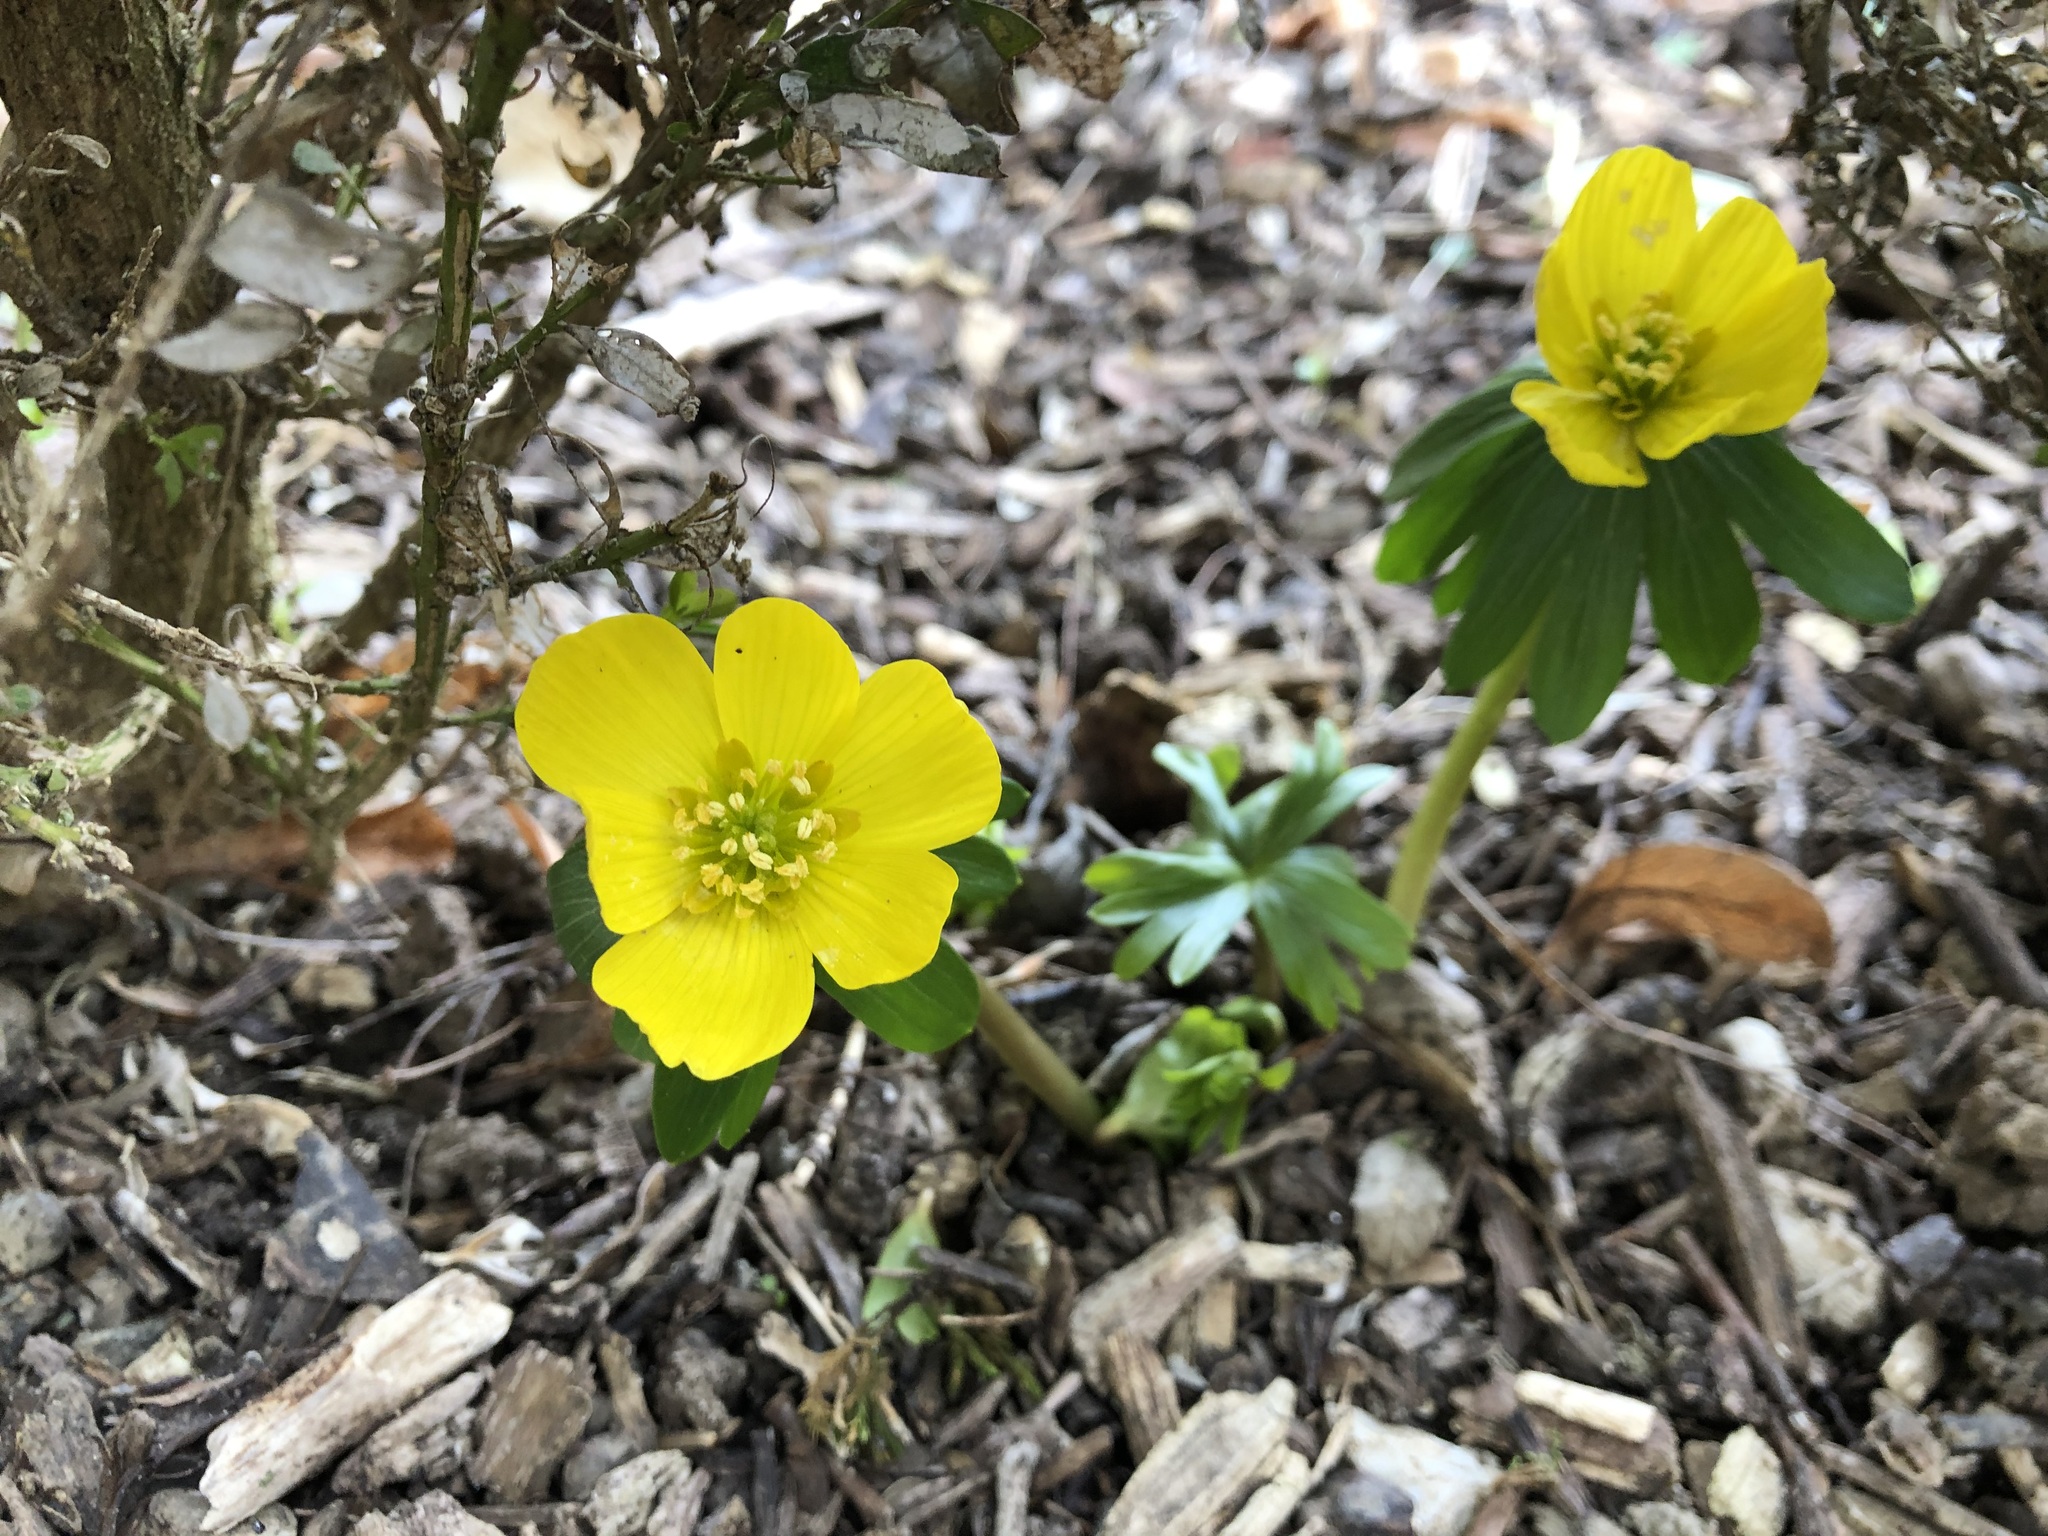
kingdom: Plantae
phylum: Tracheophyta
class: Magnoliopsida
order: Ranunculales
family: Ranunculaceae
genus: Eranthis
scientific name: Eranthis hyemalis
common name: Winter aconite
